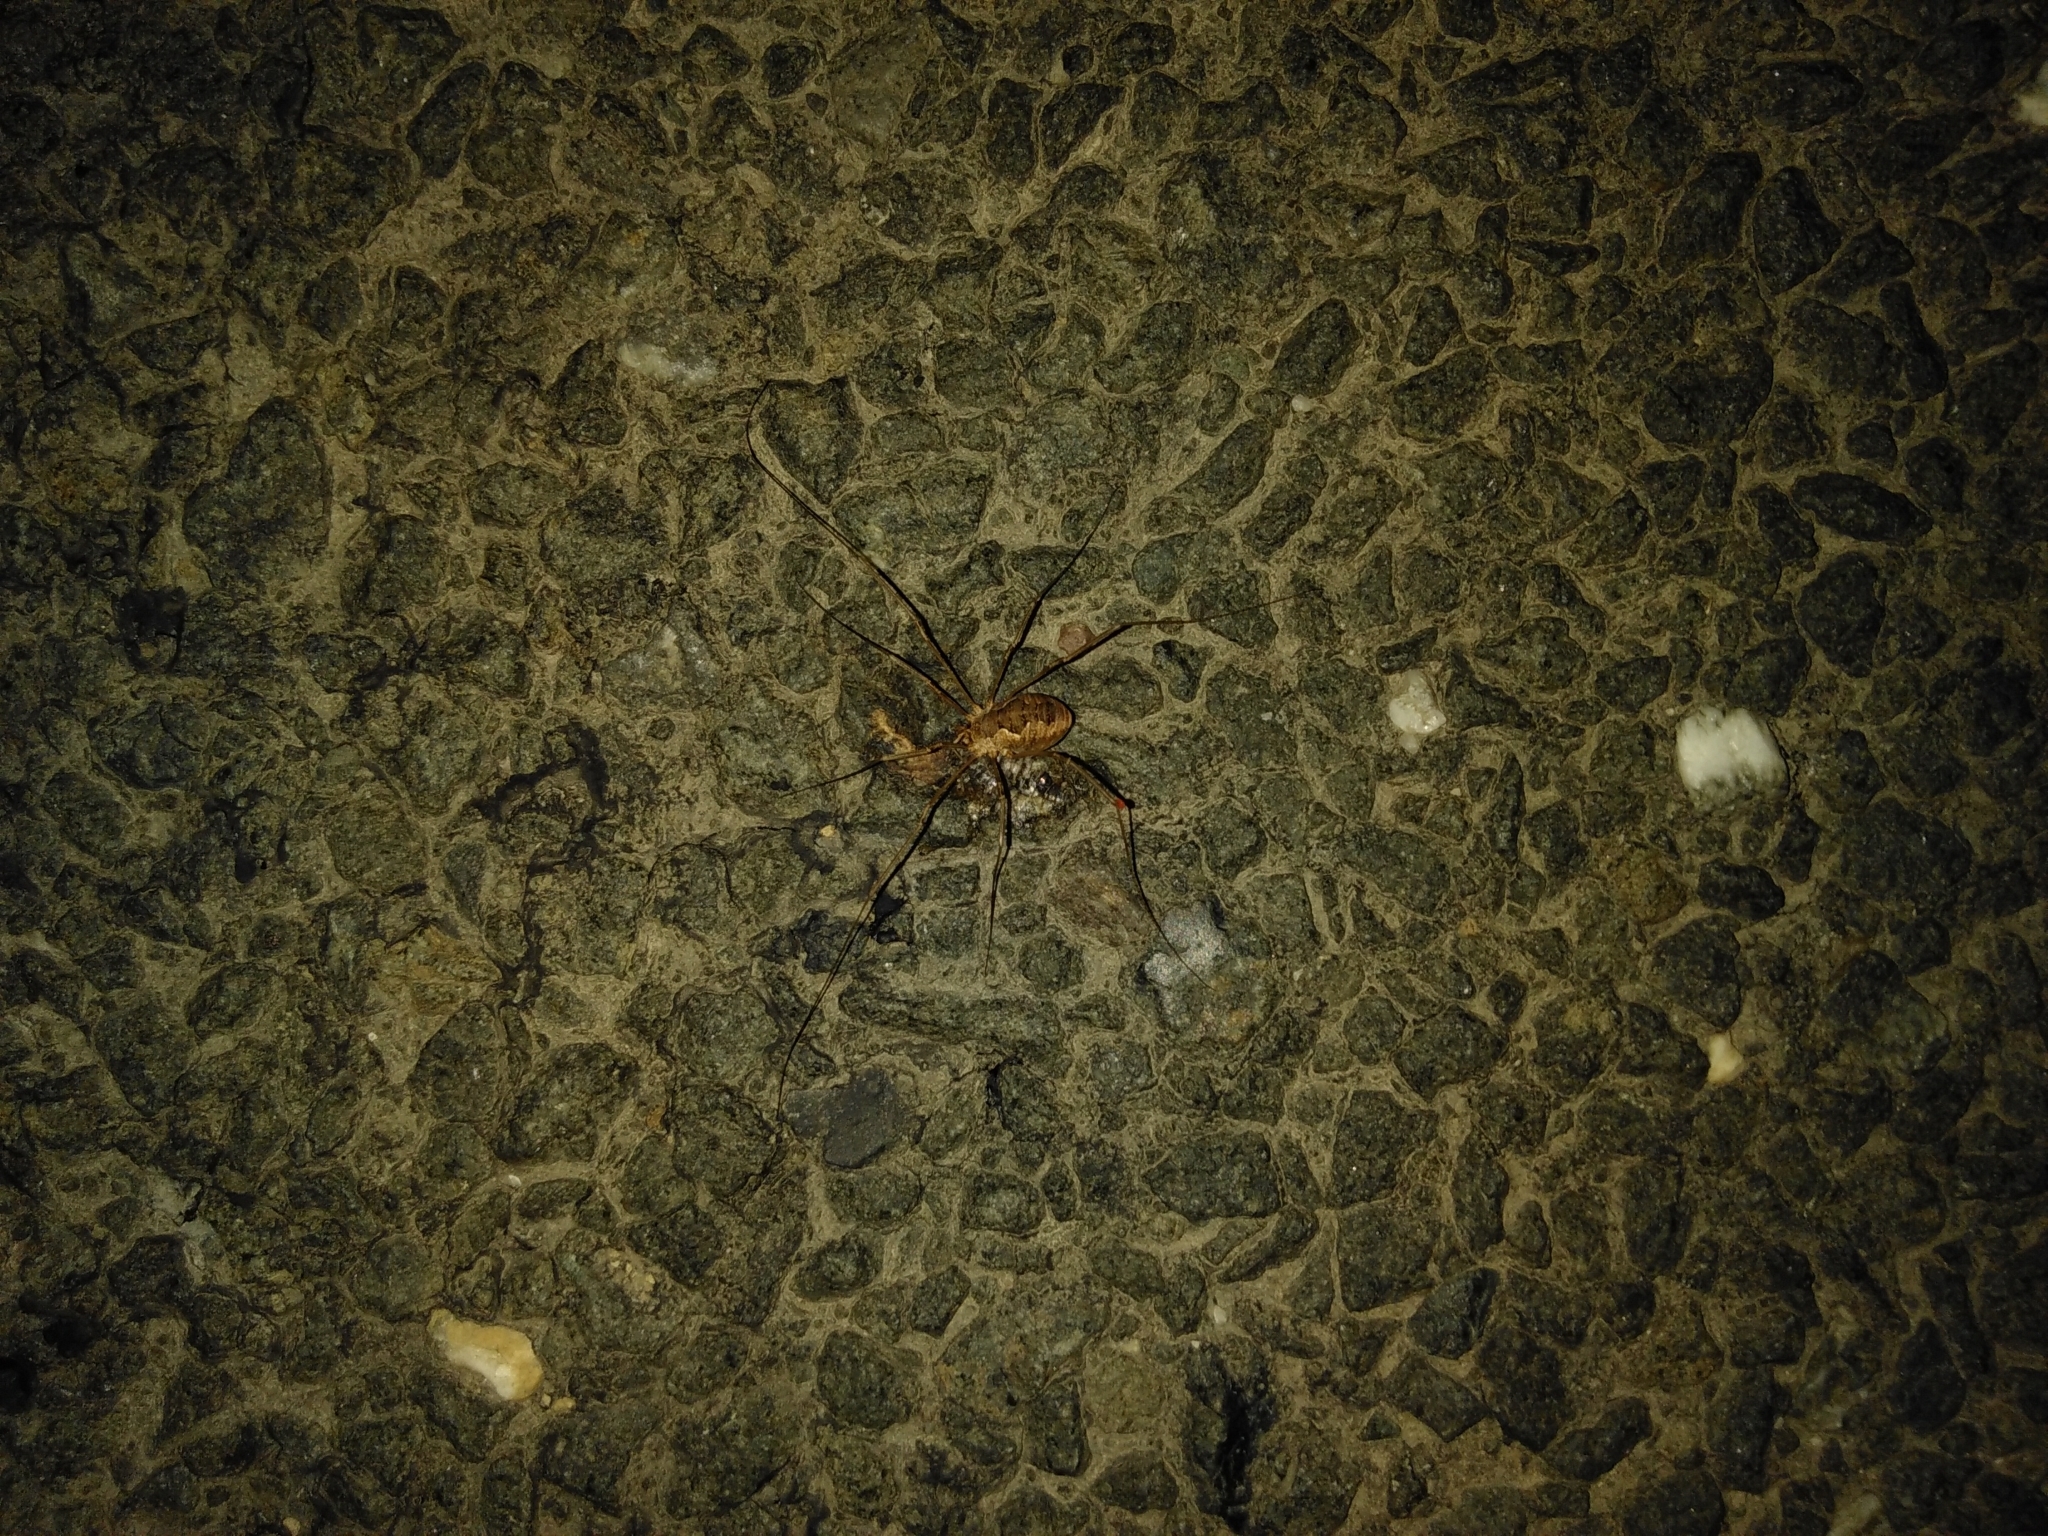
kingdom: Animalia
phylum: Arthropoda
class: Arachnida
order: Opiliones
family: Phalangiidae
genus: Phalangium
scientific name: Phalangium opilio
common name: Daddy longleg
